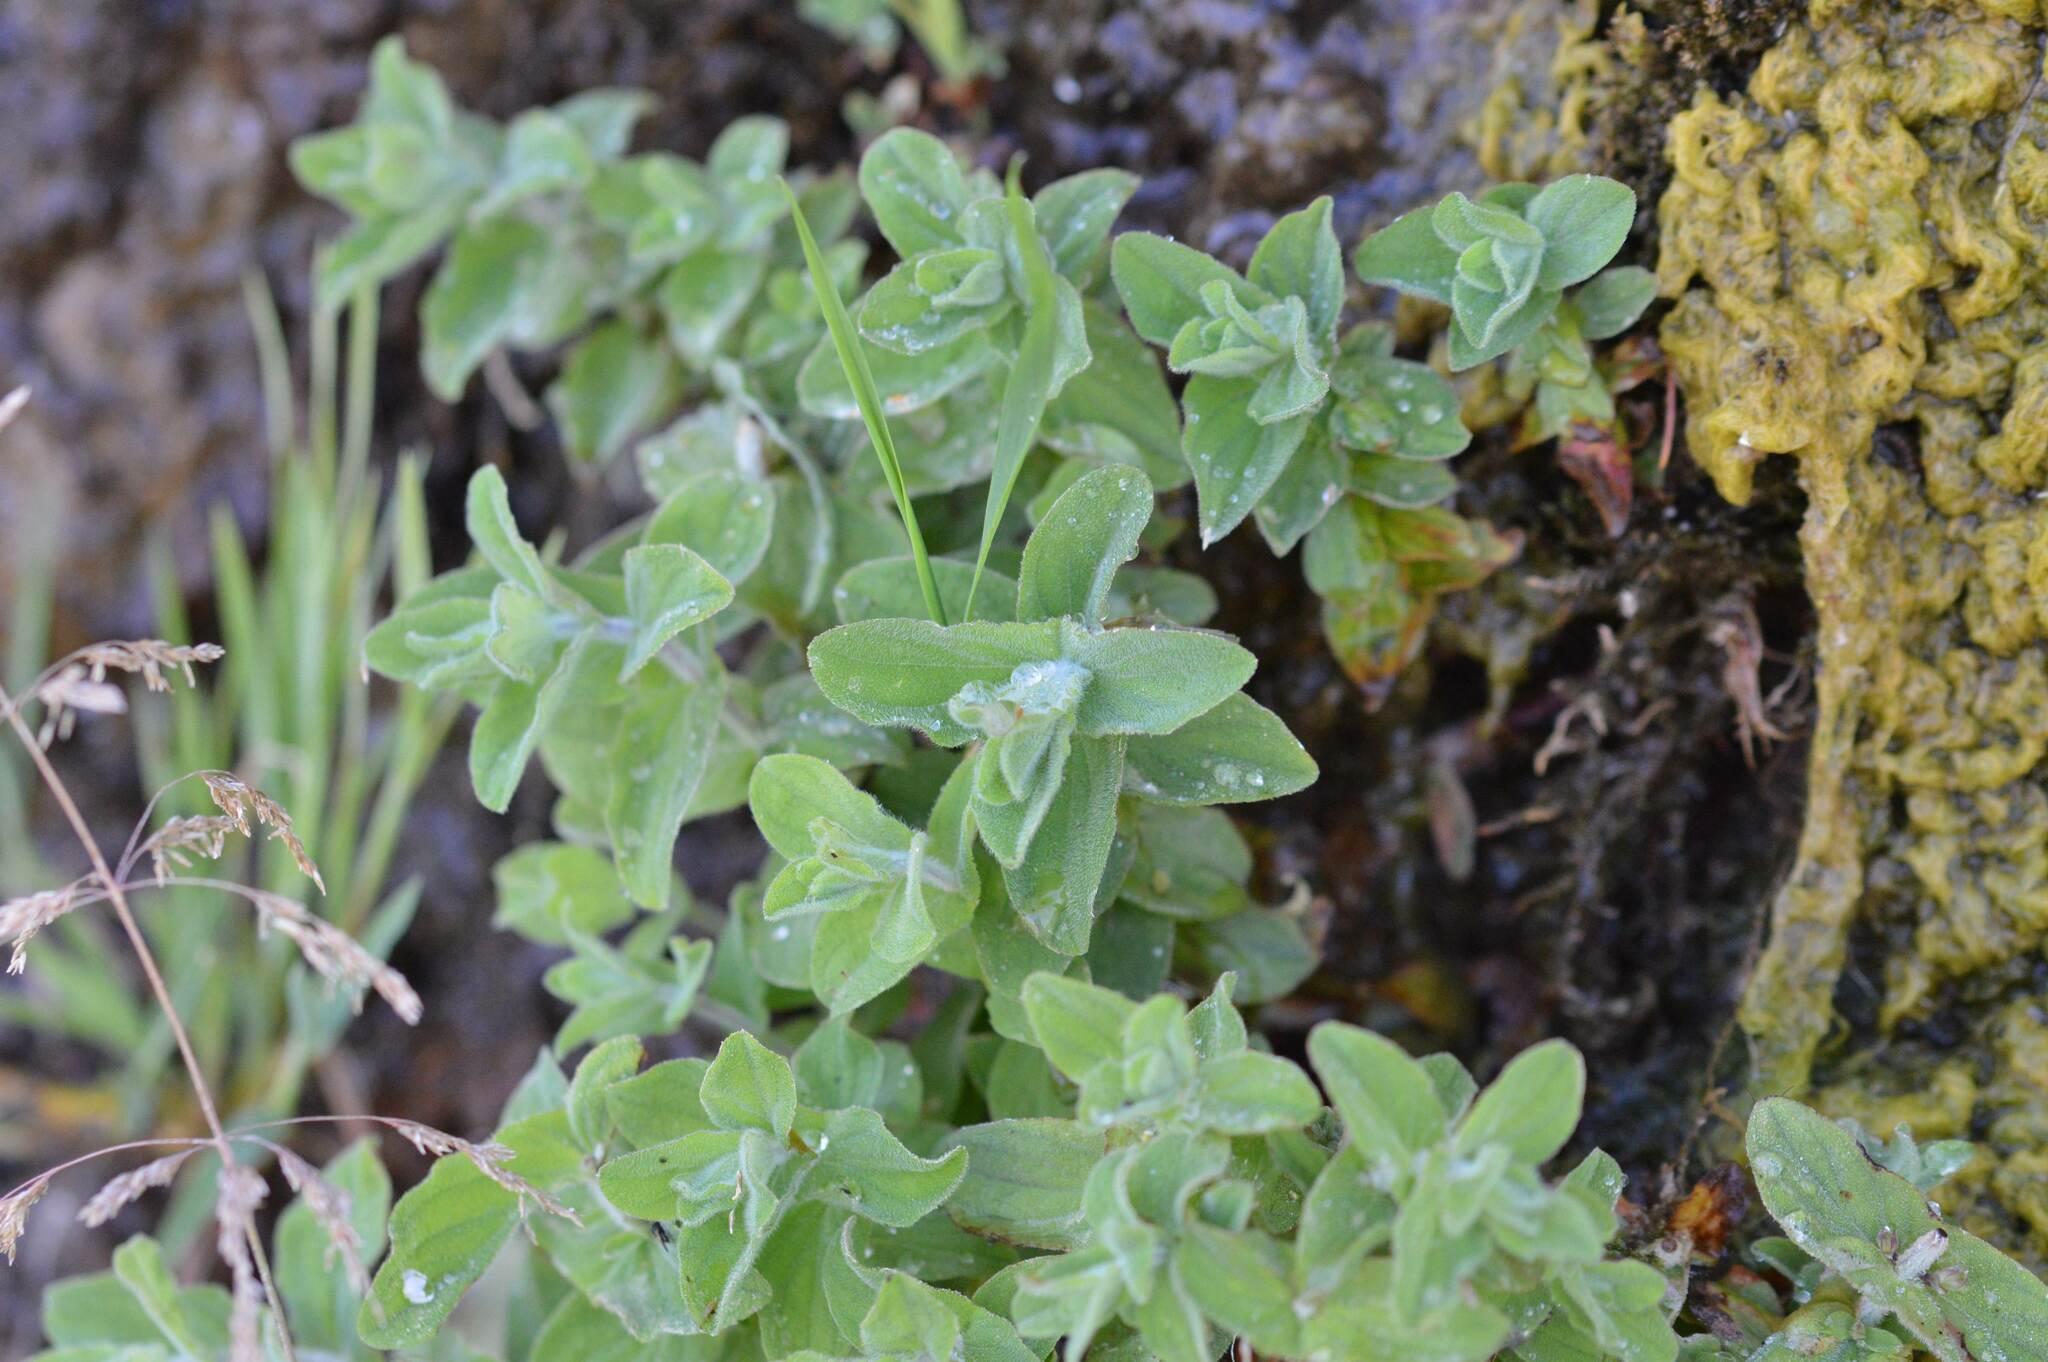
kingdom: Plantae
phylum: Tracheophyta
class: Magnoliopsida
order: Lamiales
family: Lamiaceae
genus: Mentha
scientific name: Mentha suaveolens
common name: Apple mint
